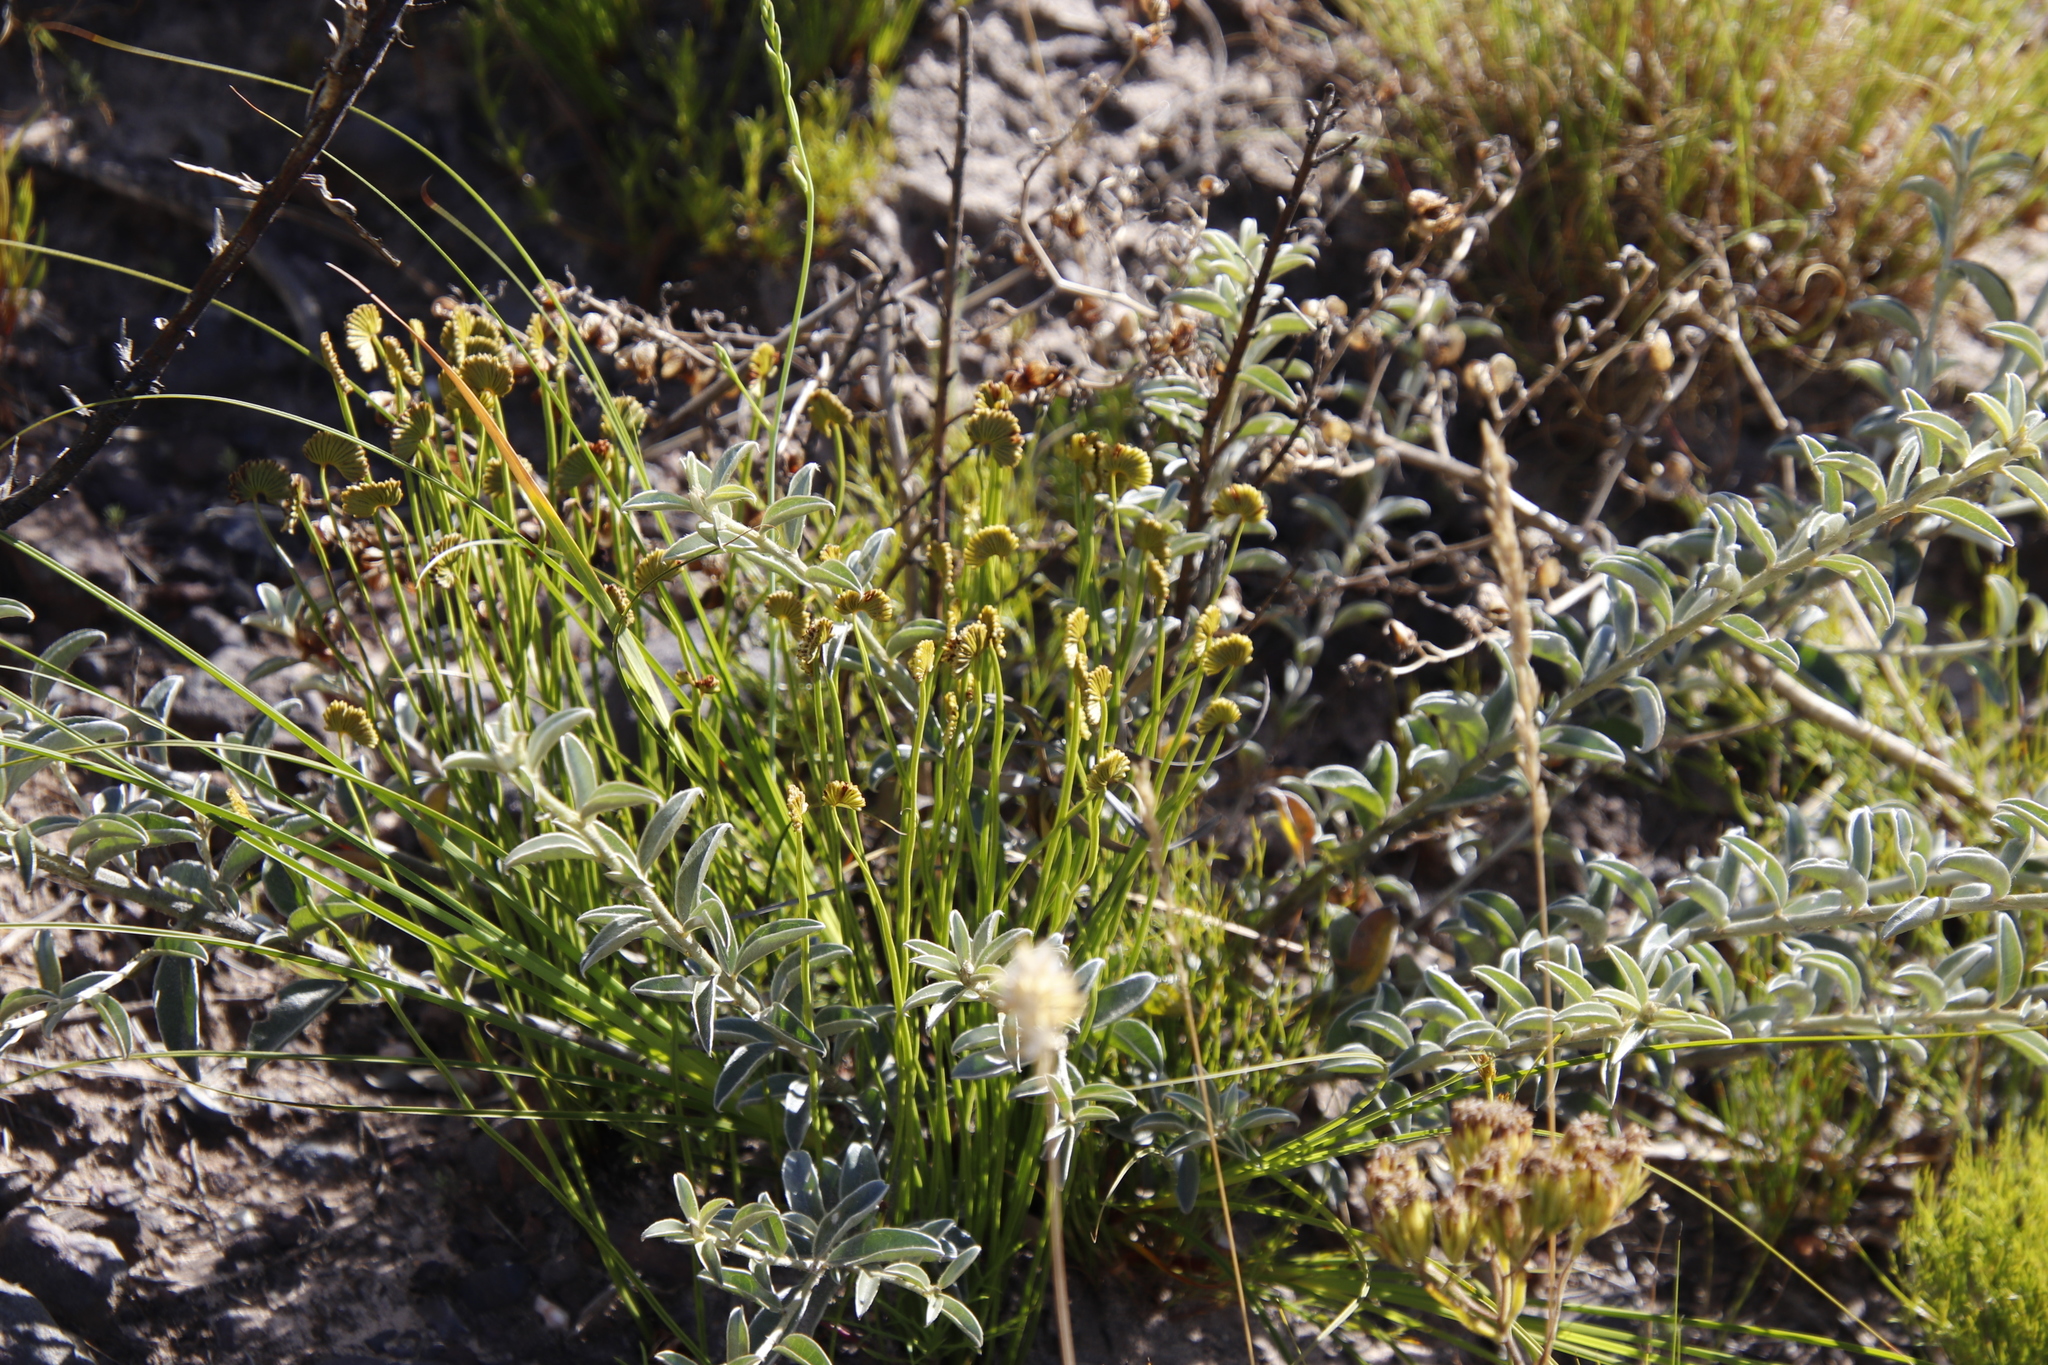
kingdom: Plantae
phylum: Tracheophyta
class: Polypodiopsida
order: Schizaeales
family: Schizaeaceae
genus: Schizaea
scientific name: Schizaea pectinata
